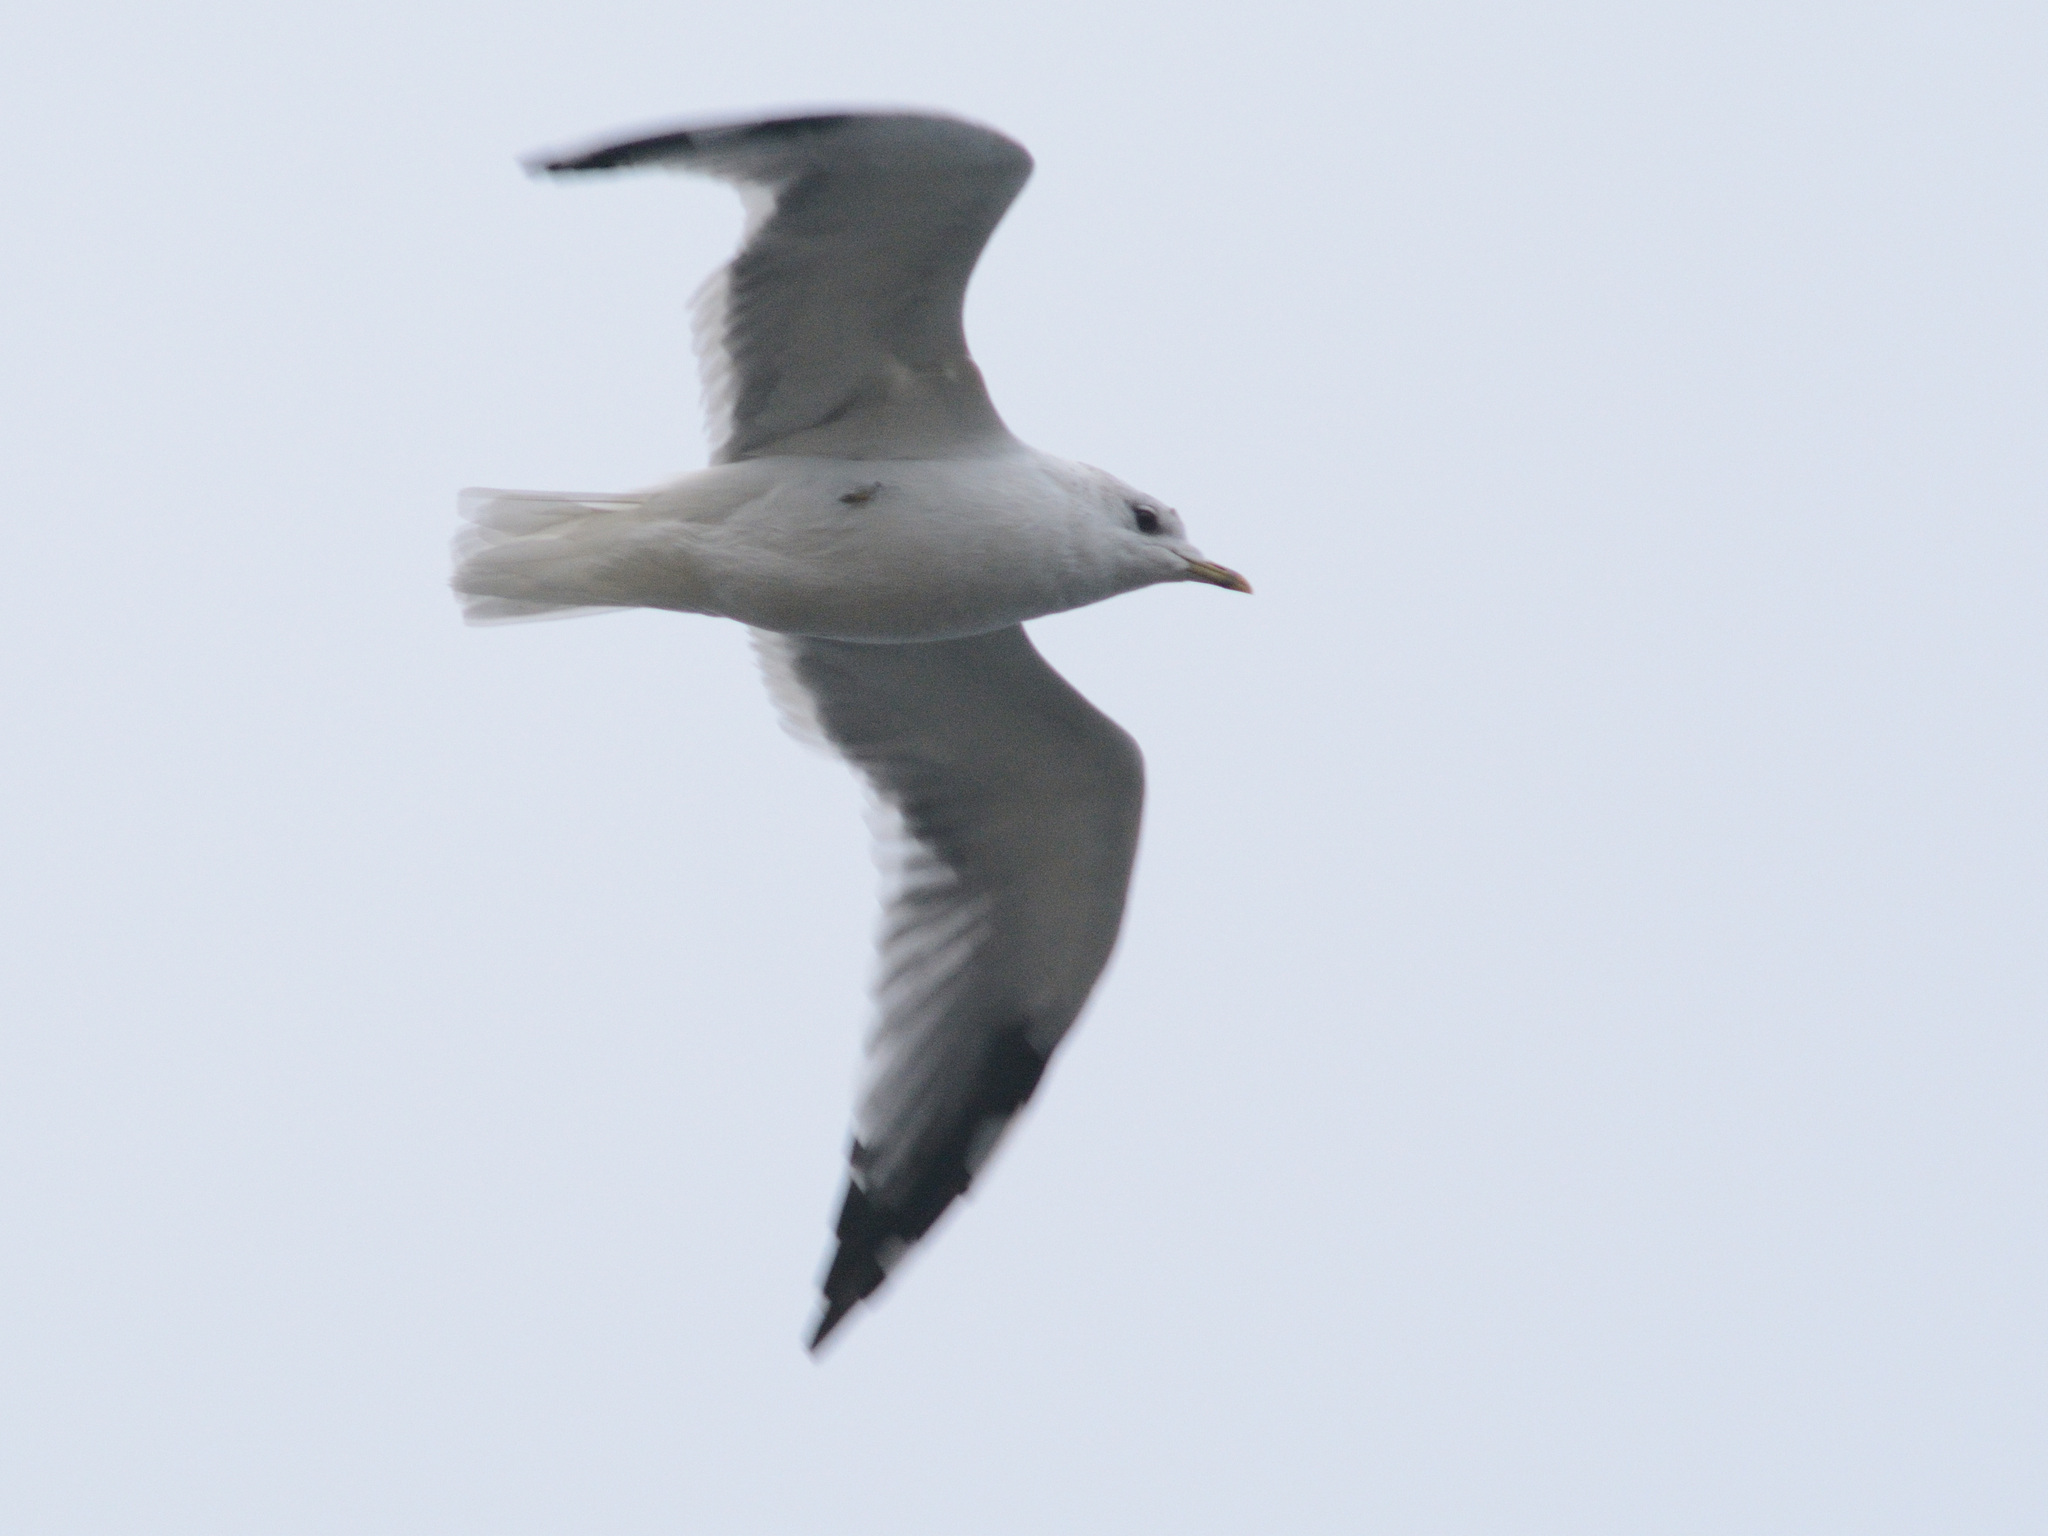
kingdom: Animalia
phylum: Chordata
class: Aves
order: Charadriiformes
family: Laridae
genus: Larus
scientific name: Larus canus
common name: Mew gull
